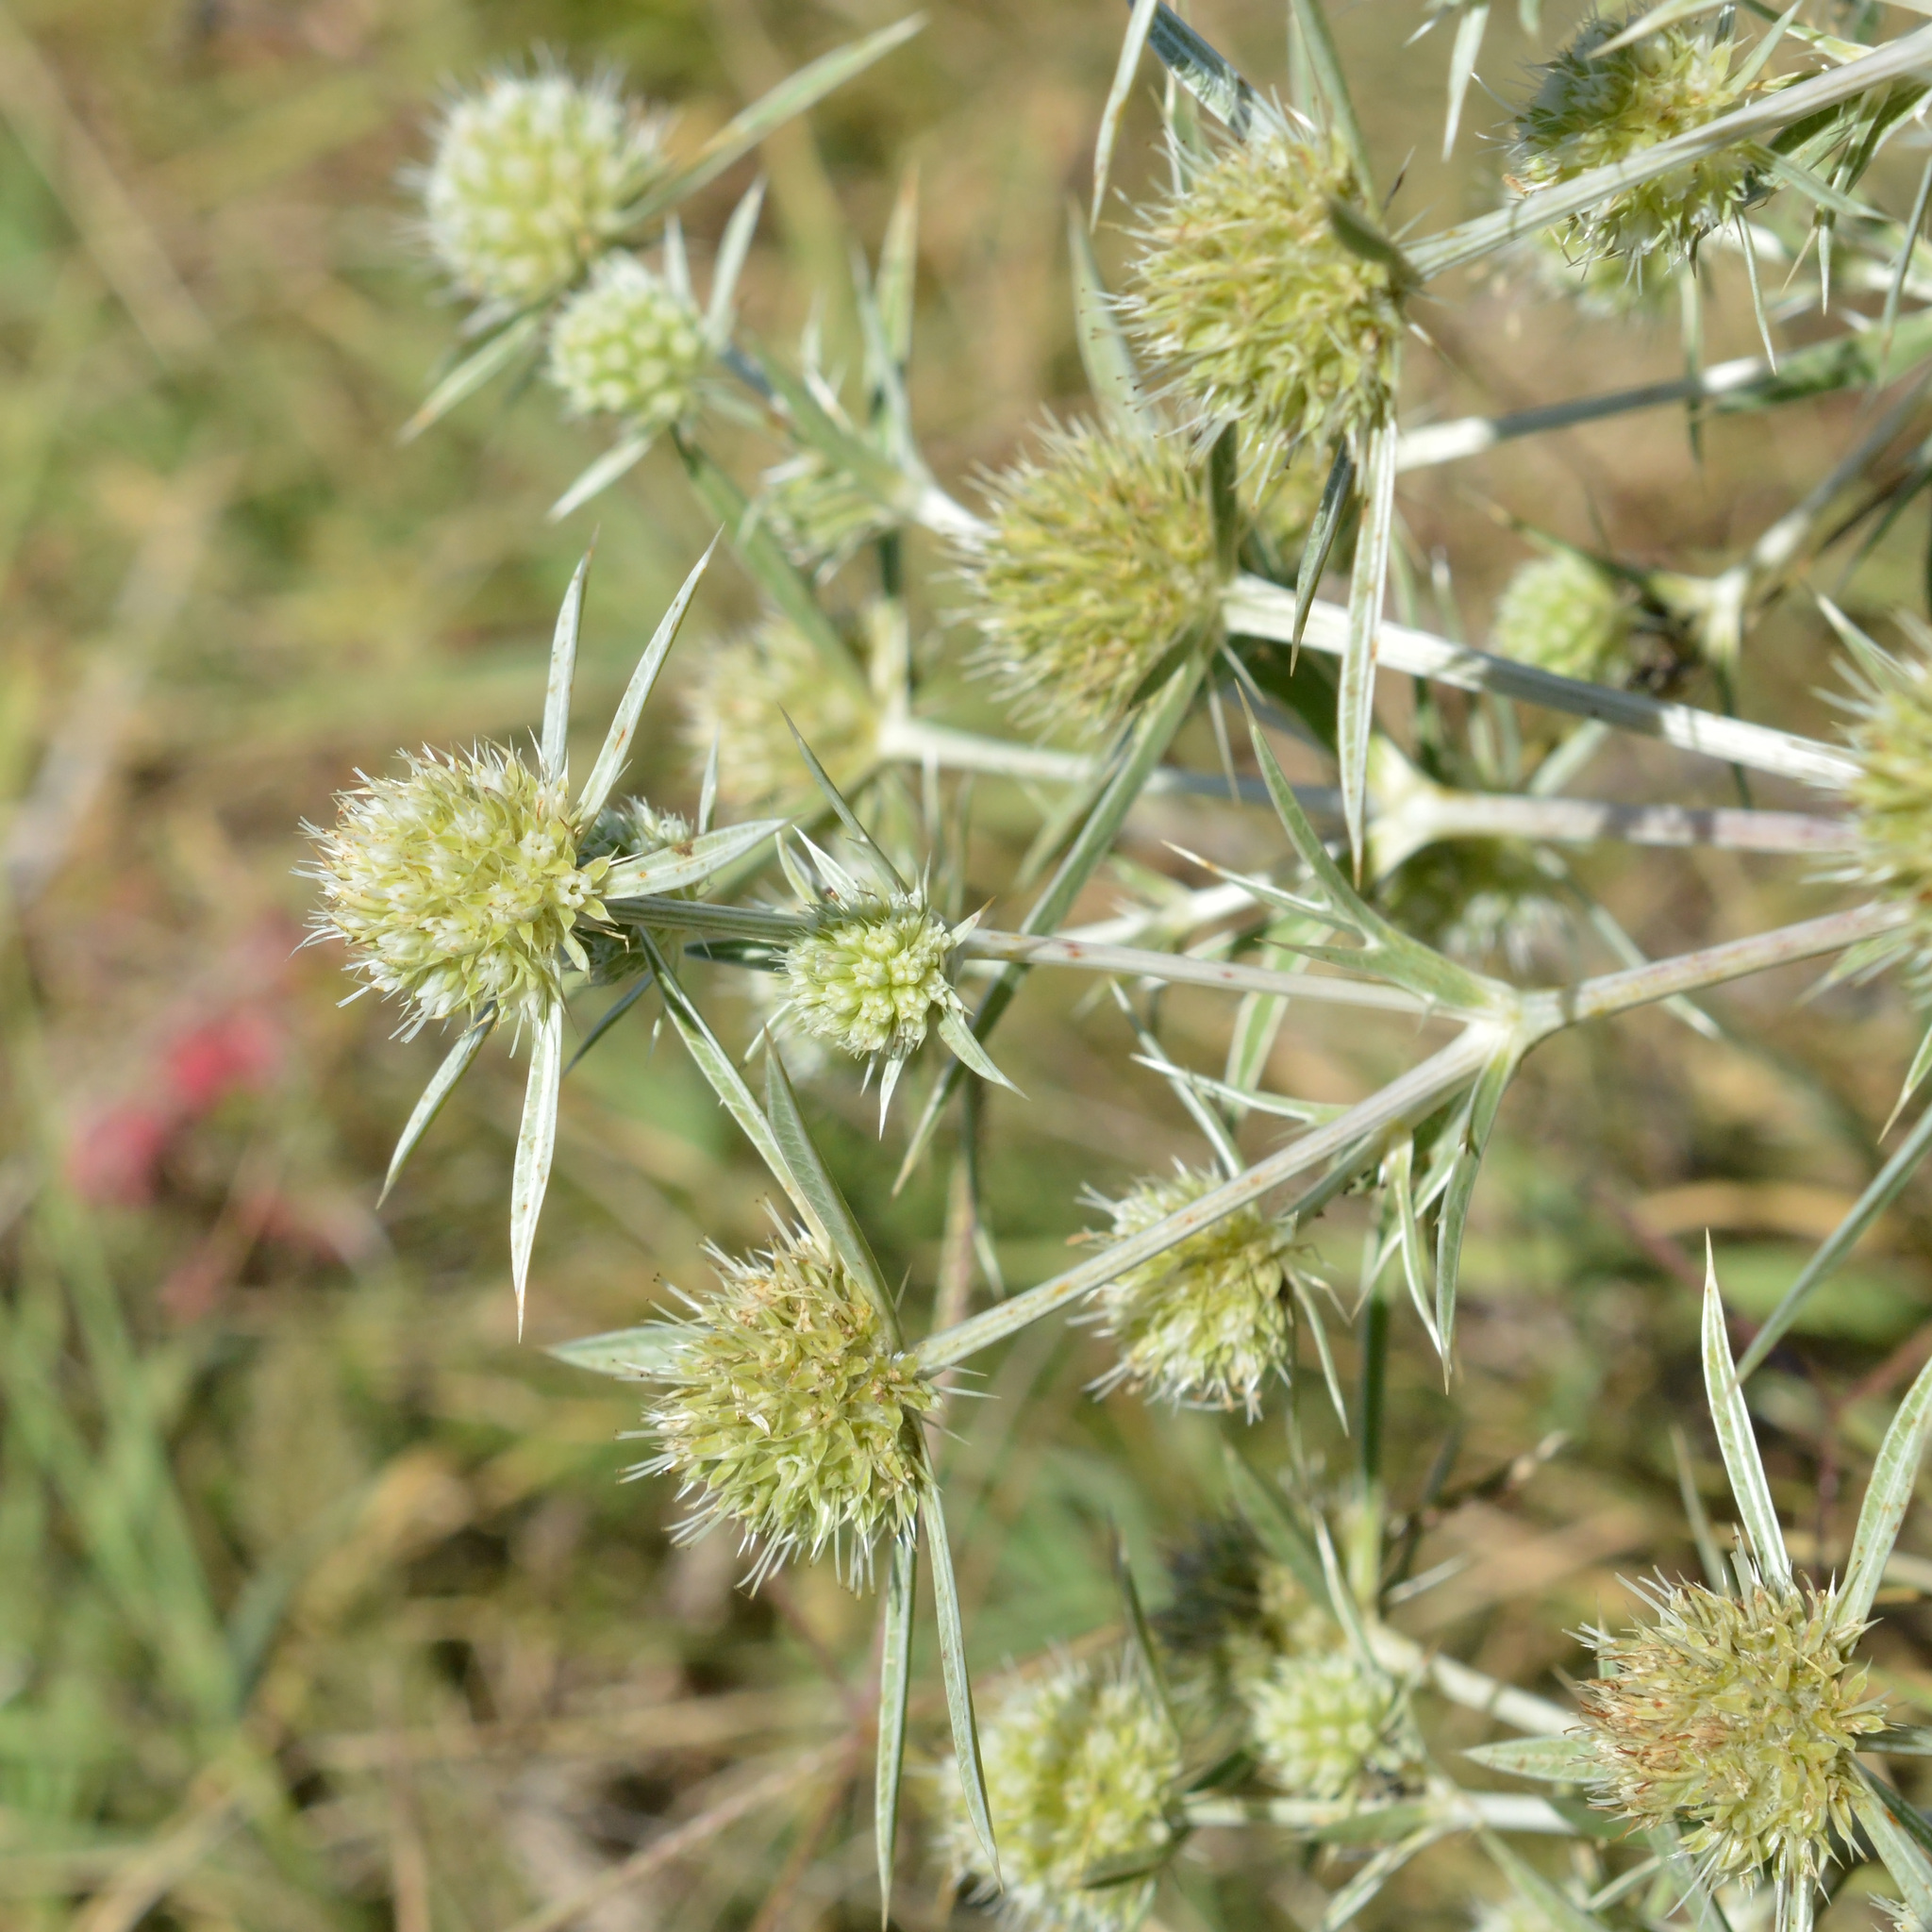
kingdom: Plantae
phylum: Tracheophyta
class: Magnoliopsida
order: Apiales
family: Apiaceae
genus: Eryngium
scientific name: Eryngium campestre
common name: Field eryngo
